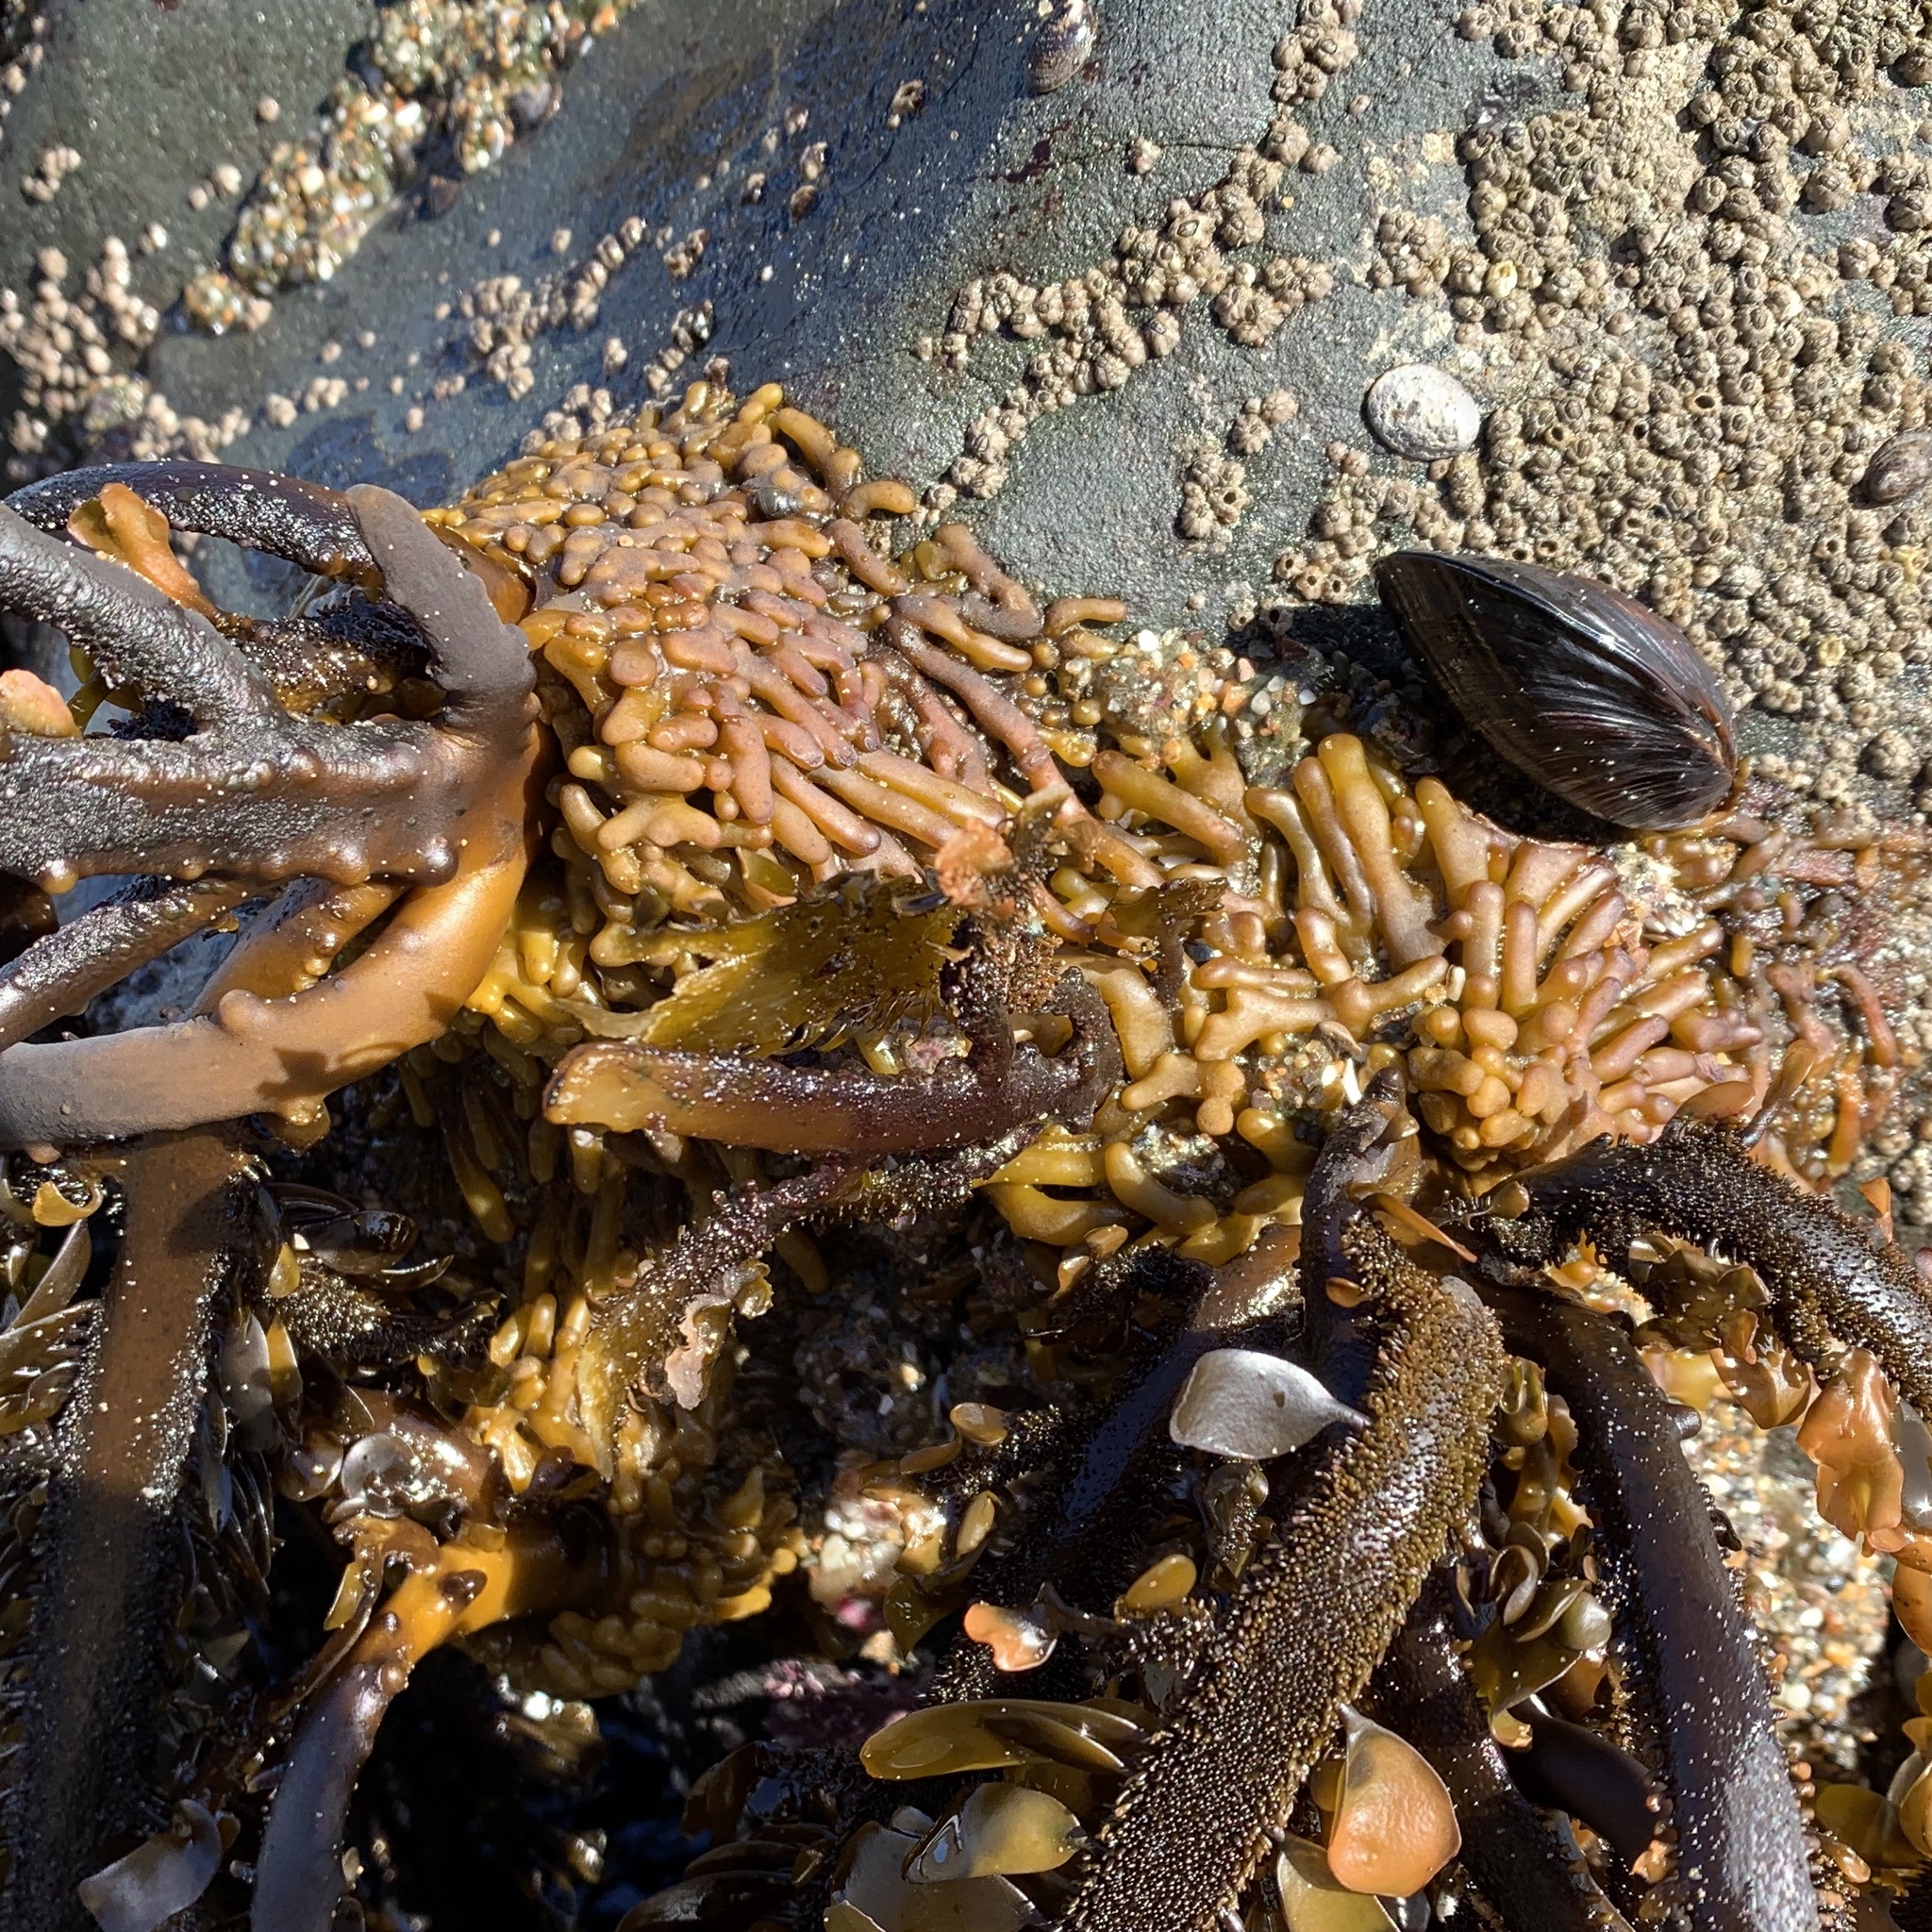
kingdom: Chromista
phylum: Ochrophyta
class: Phaeophyceae
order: Laminariales
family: Lessoniaceae
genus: Egregia
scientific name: Egregia menziesii
